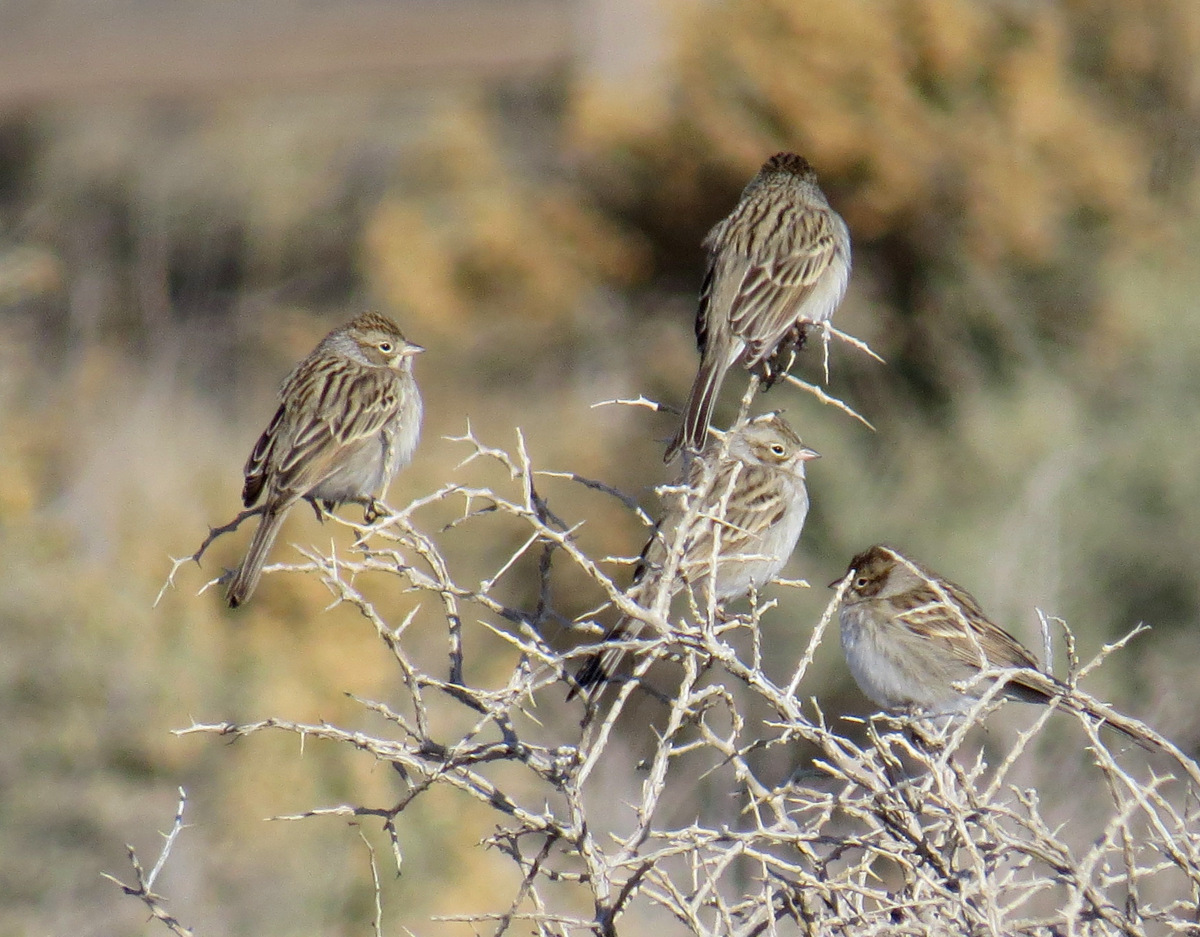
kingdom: Animalia
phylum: Chordata
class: Aves
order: Passeriformes
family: Passerellidae
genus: Spizella
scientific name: Spizella breweri
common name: Brewer's sparrow
